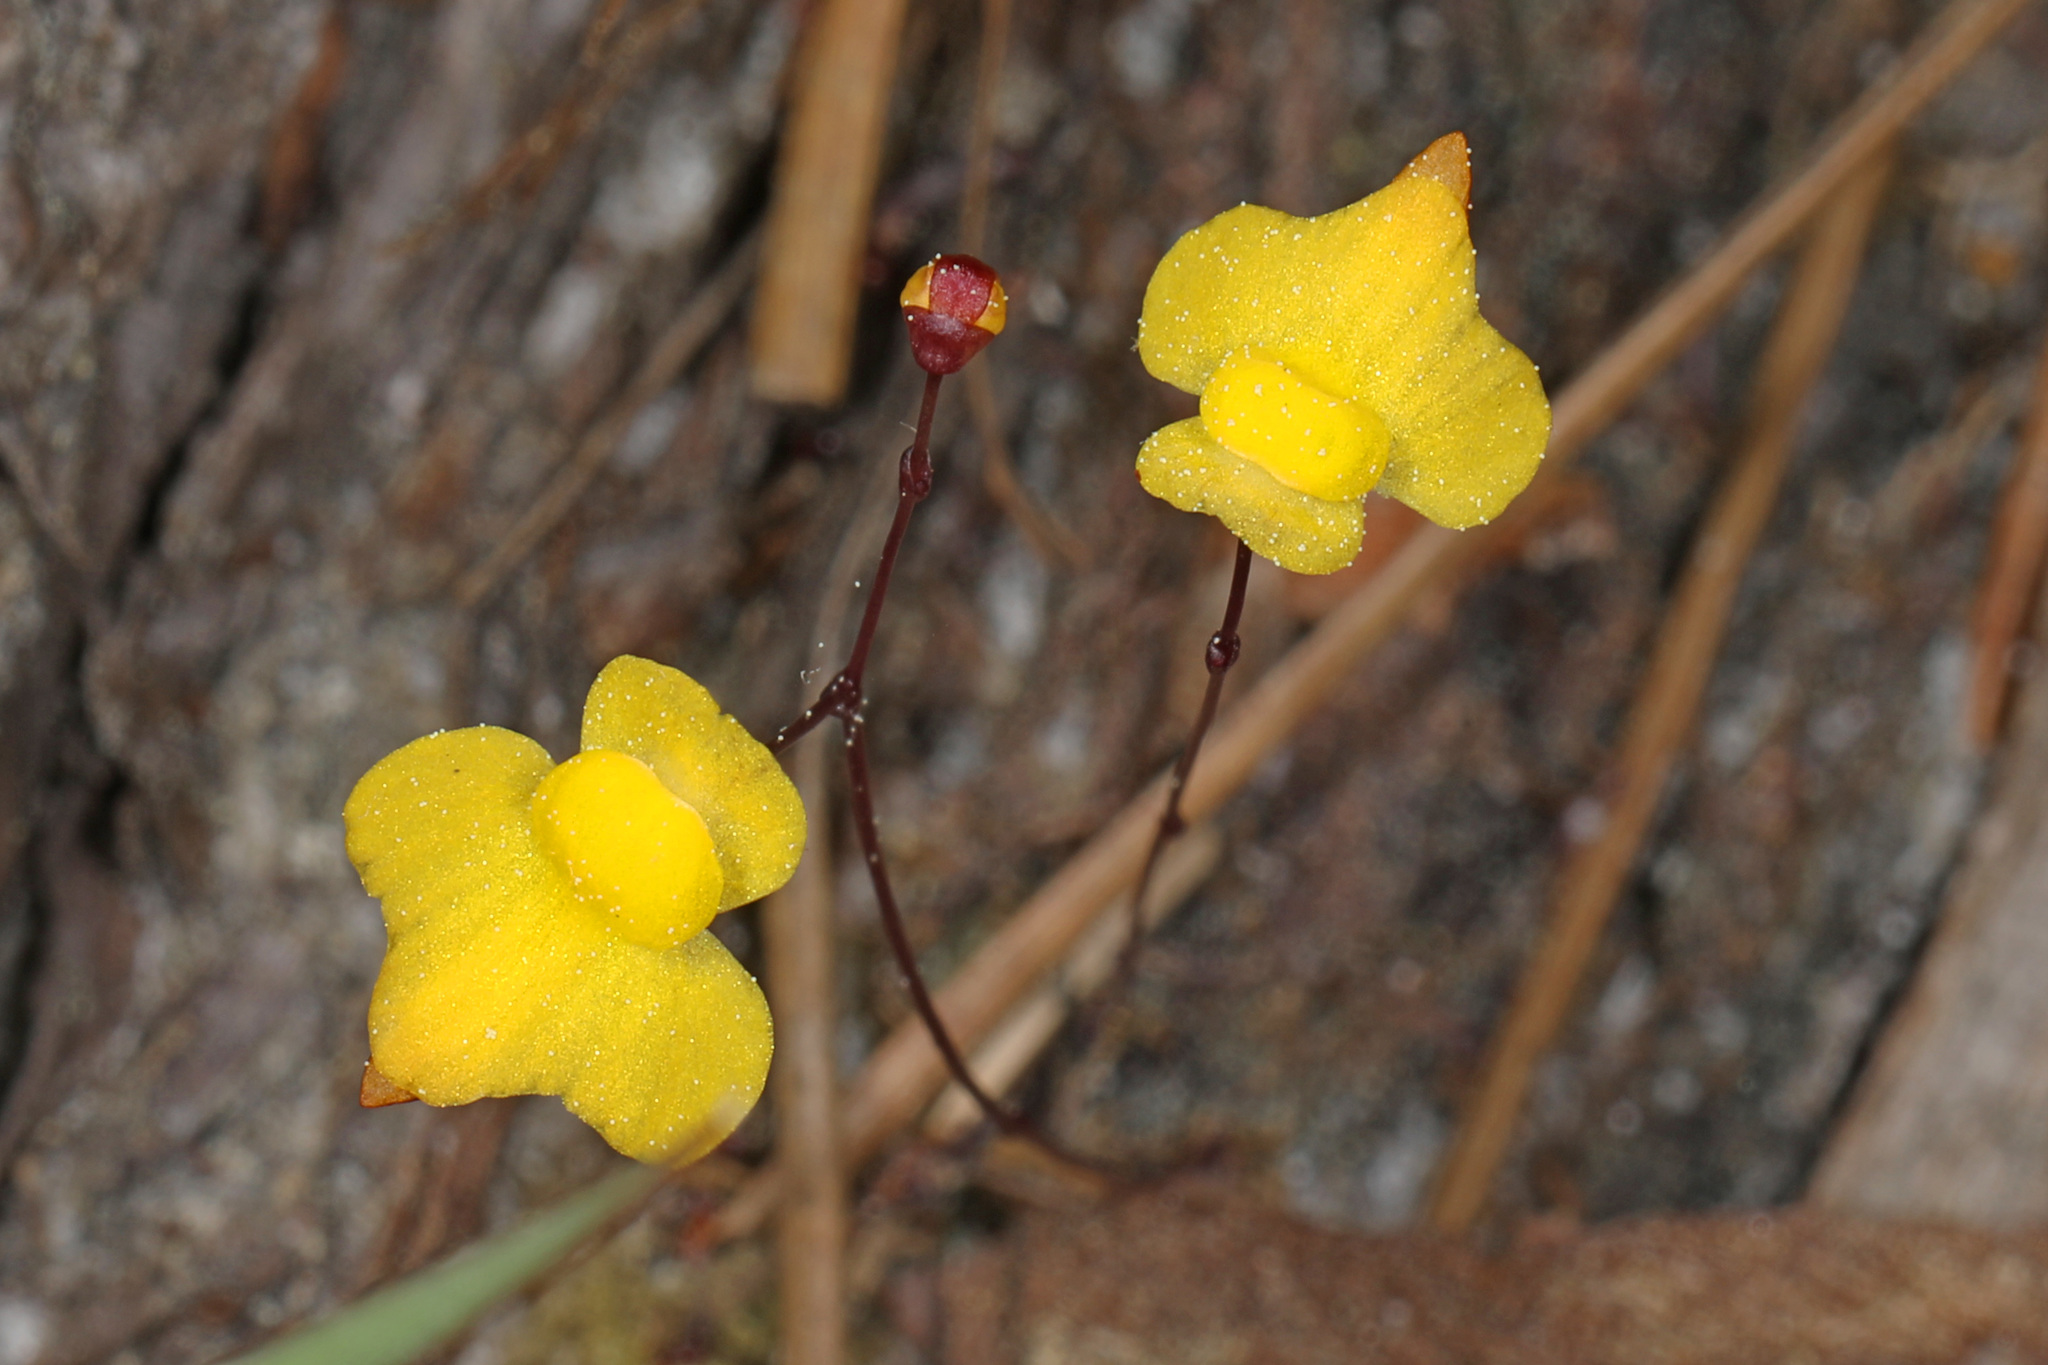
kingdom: Plantae
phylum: Tracheophyta
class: Magnoliopsida
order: Lamiales
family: Lentibulariaceae
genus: Utricularia
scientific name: Utricularia subulata
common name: Tiny bladderwort
